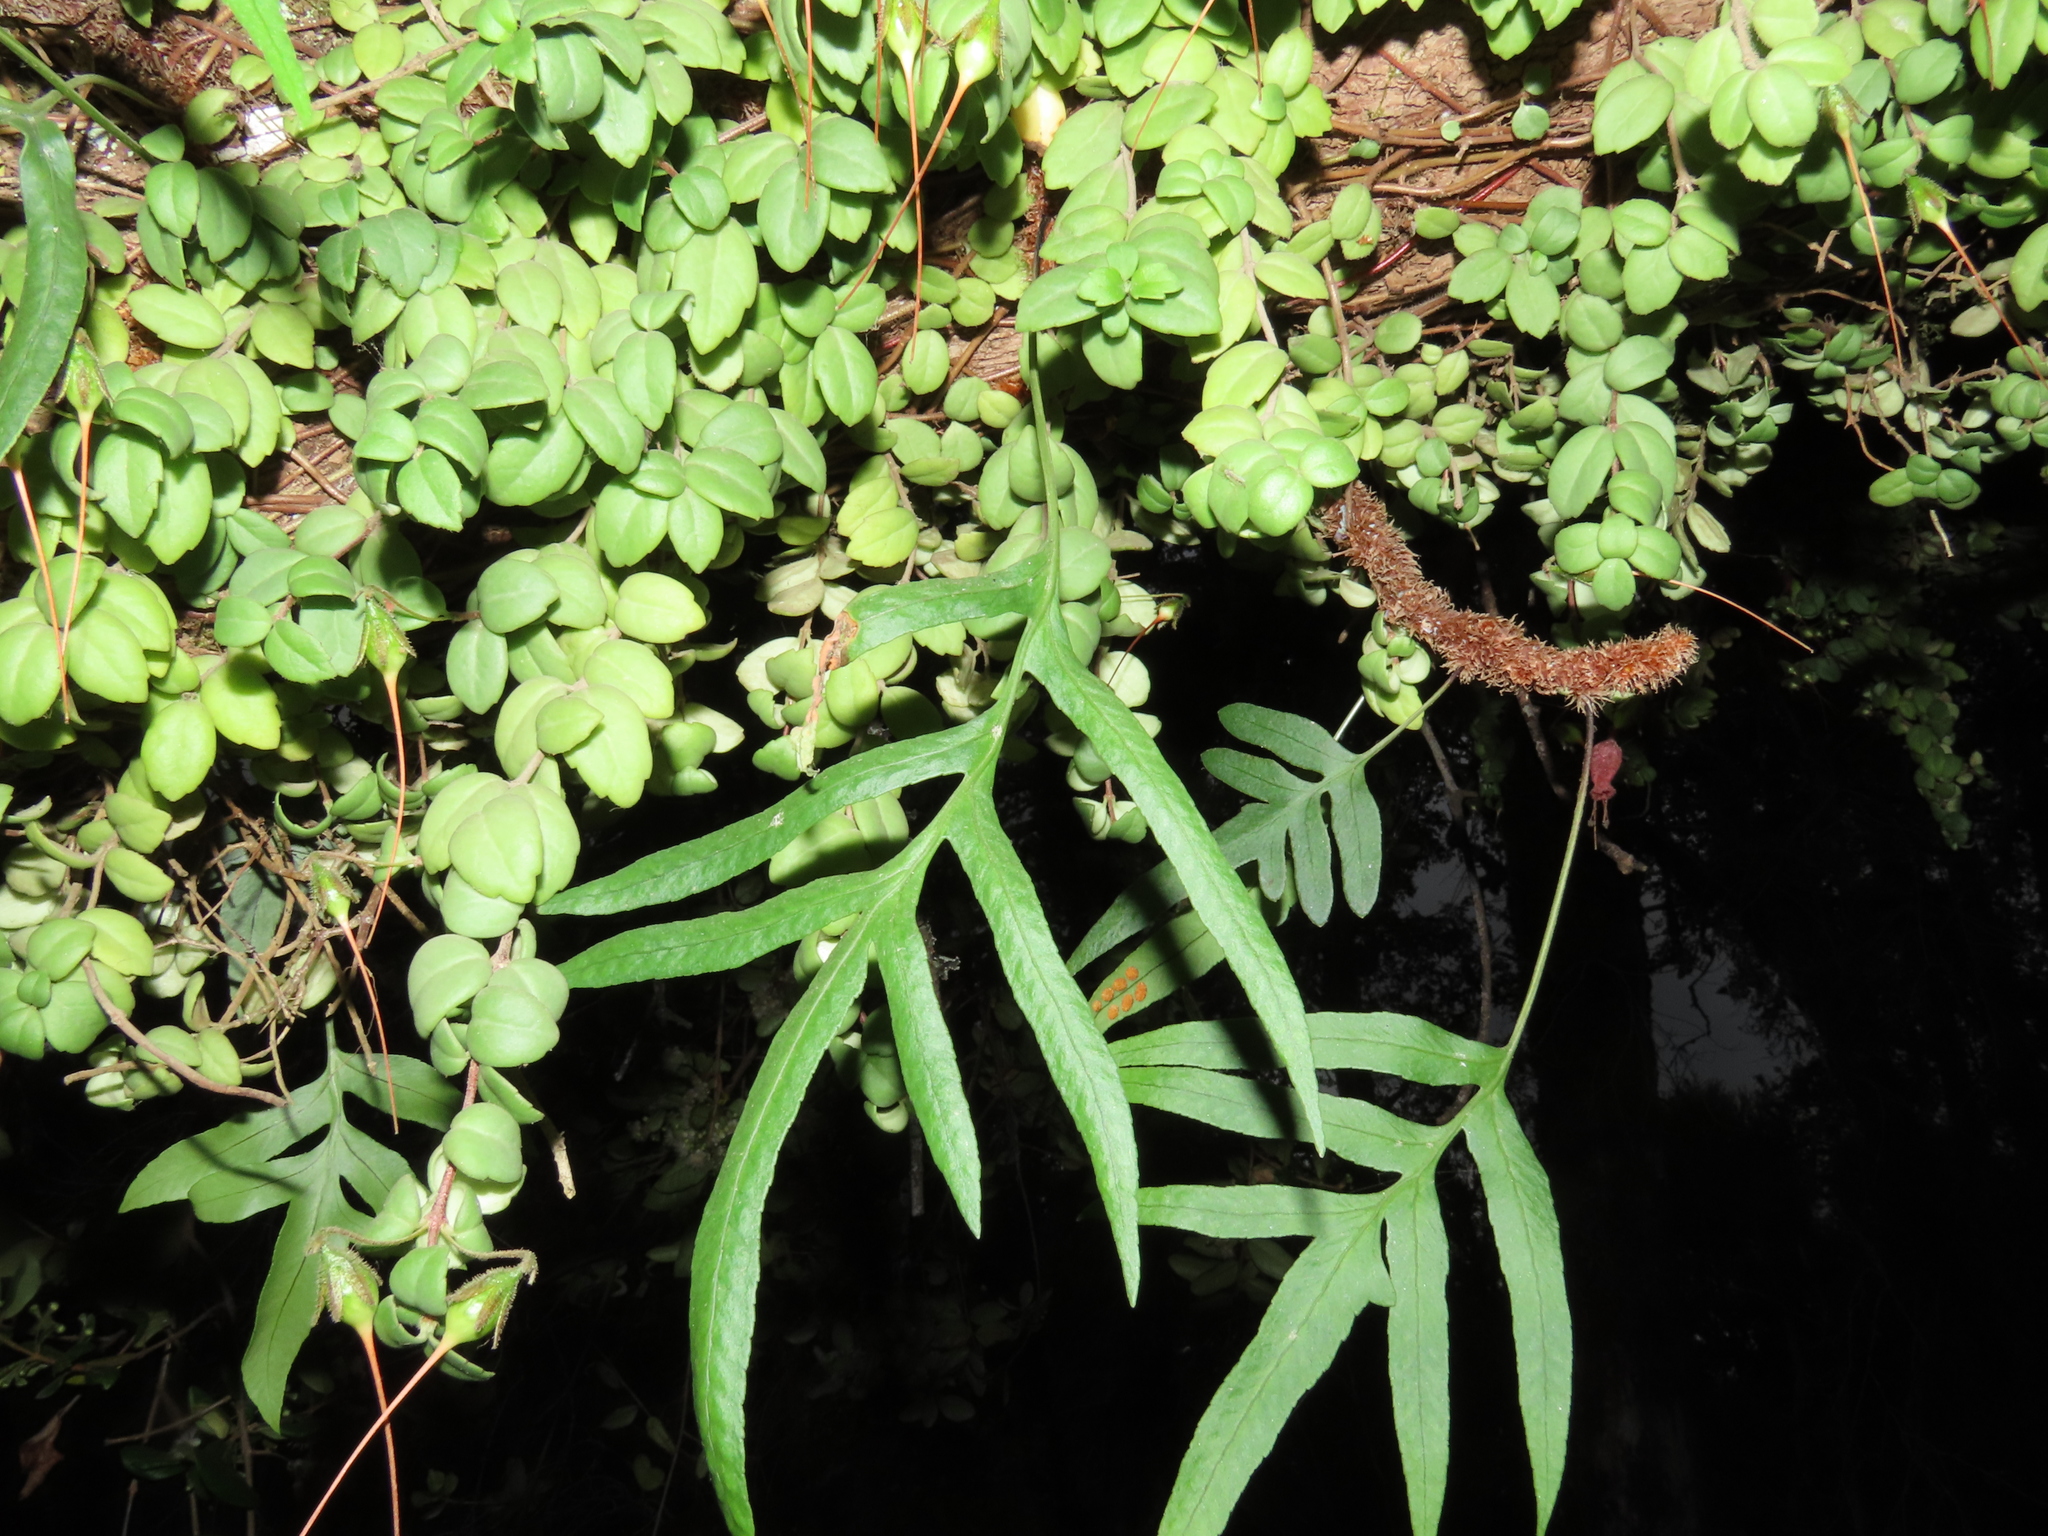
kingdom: Plantae
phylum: Tracheophyta
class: Polypodiopsida
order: Polypodiales
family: Polypodiaceae
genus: Synammia
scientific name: Synammia feuillei
